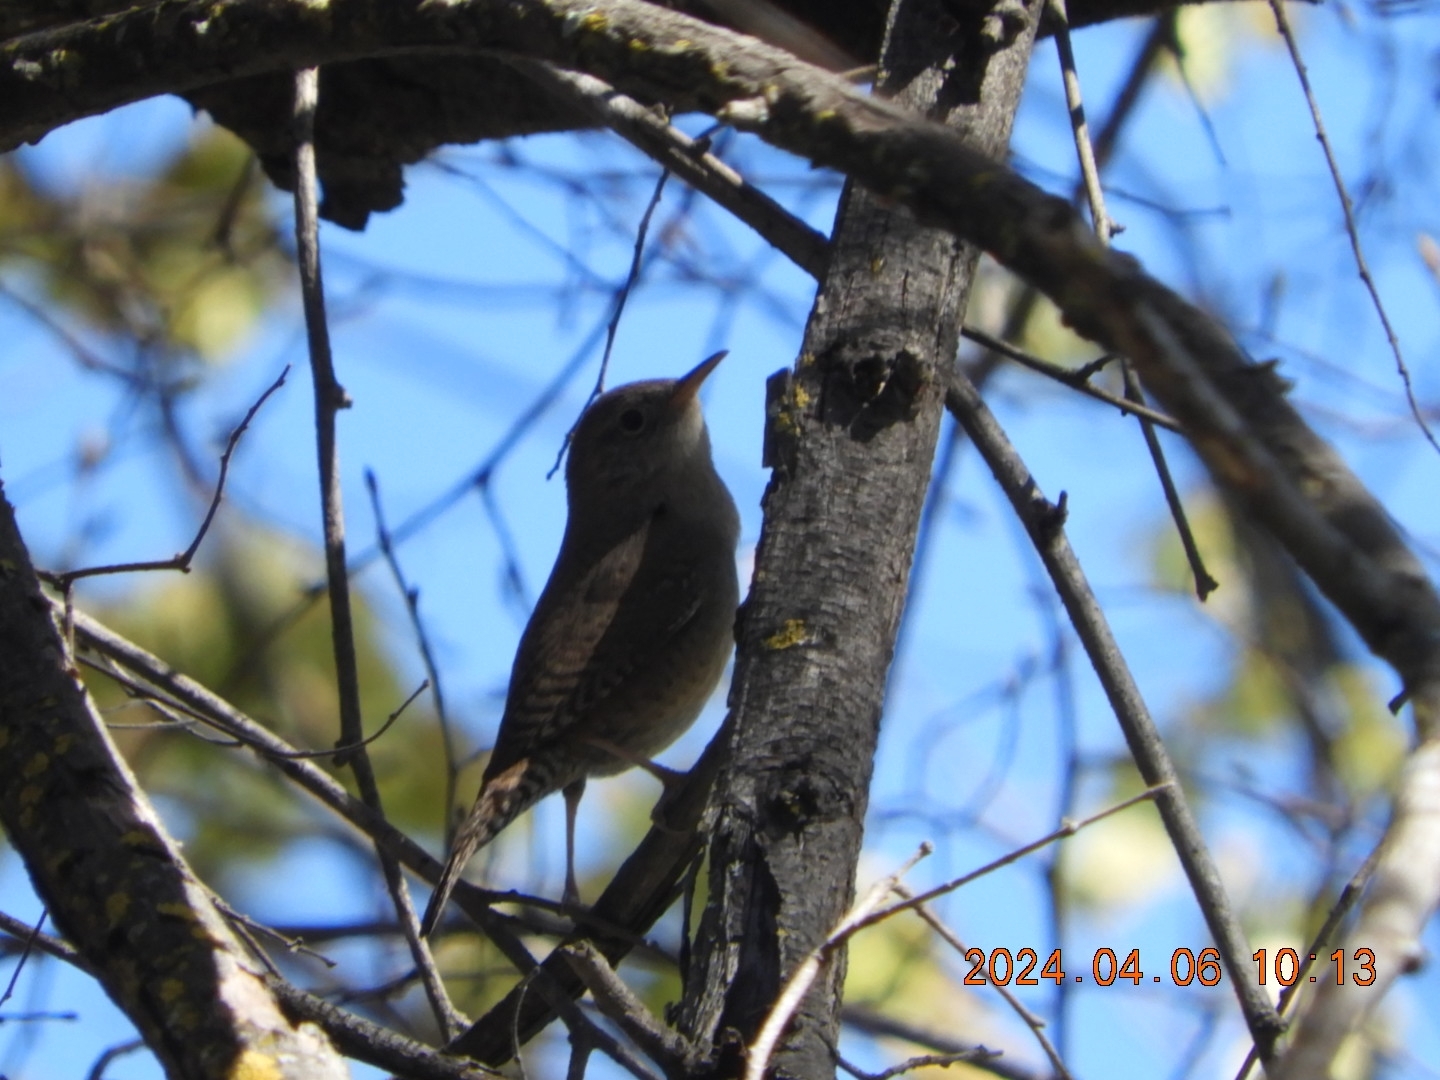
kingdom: Animalia
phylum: Chordata
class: Aves
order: Passeriformes
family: Troglodytidae
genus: Troglodytes
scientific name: Troglodytes aedon
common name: House wren
